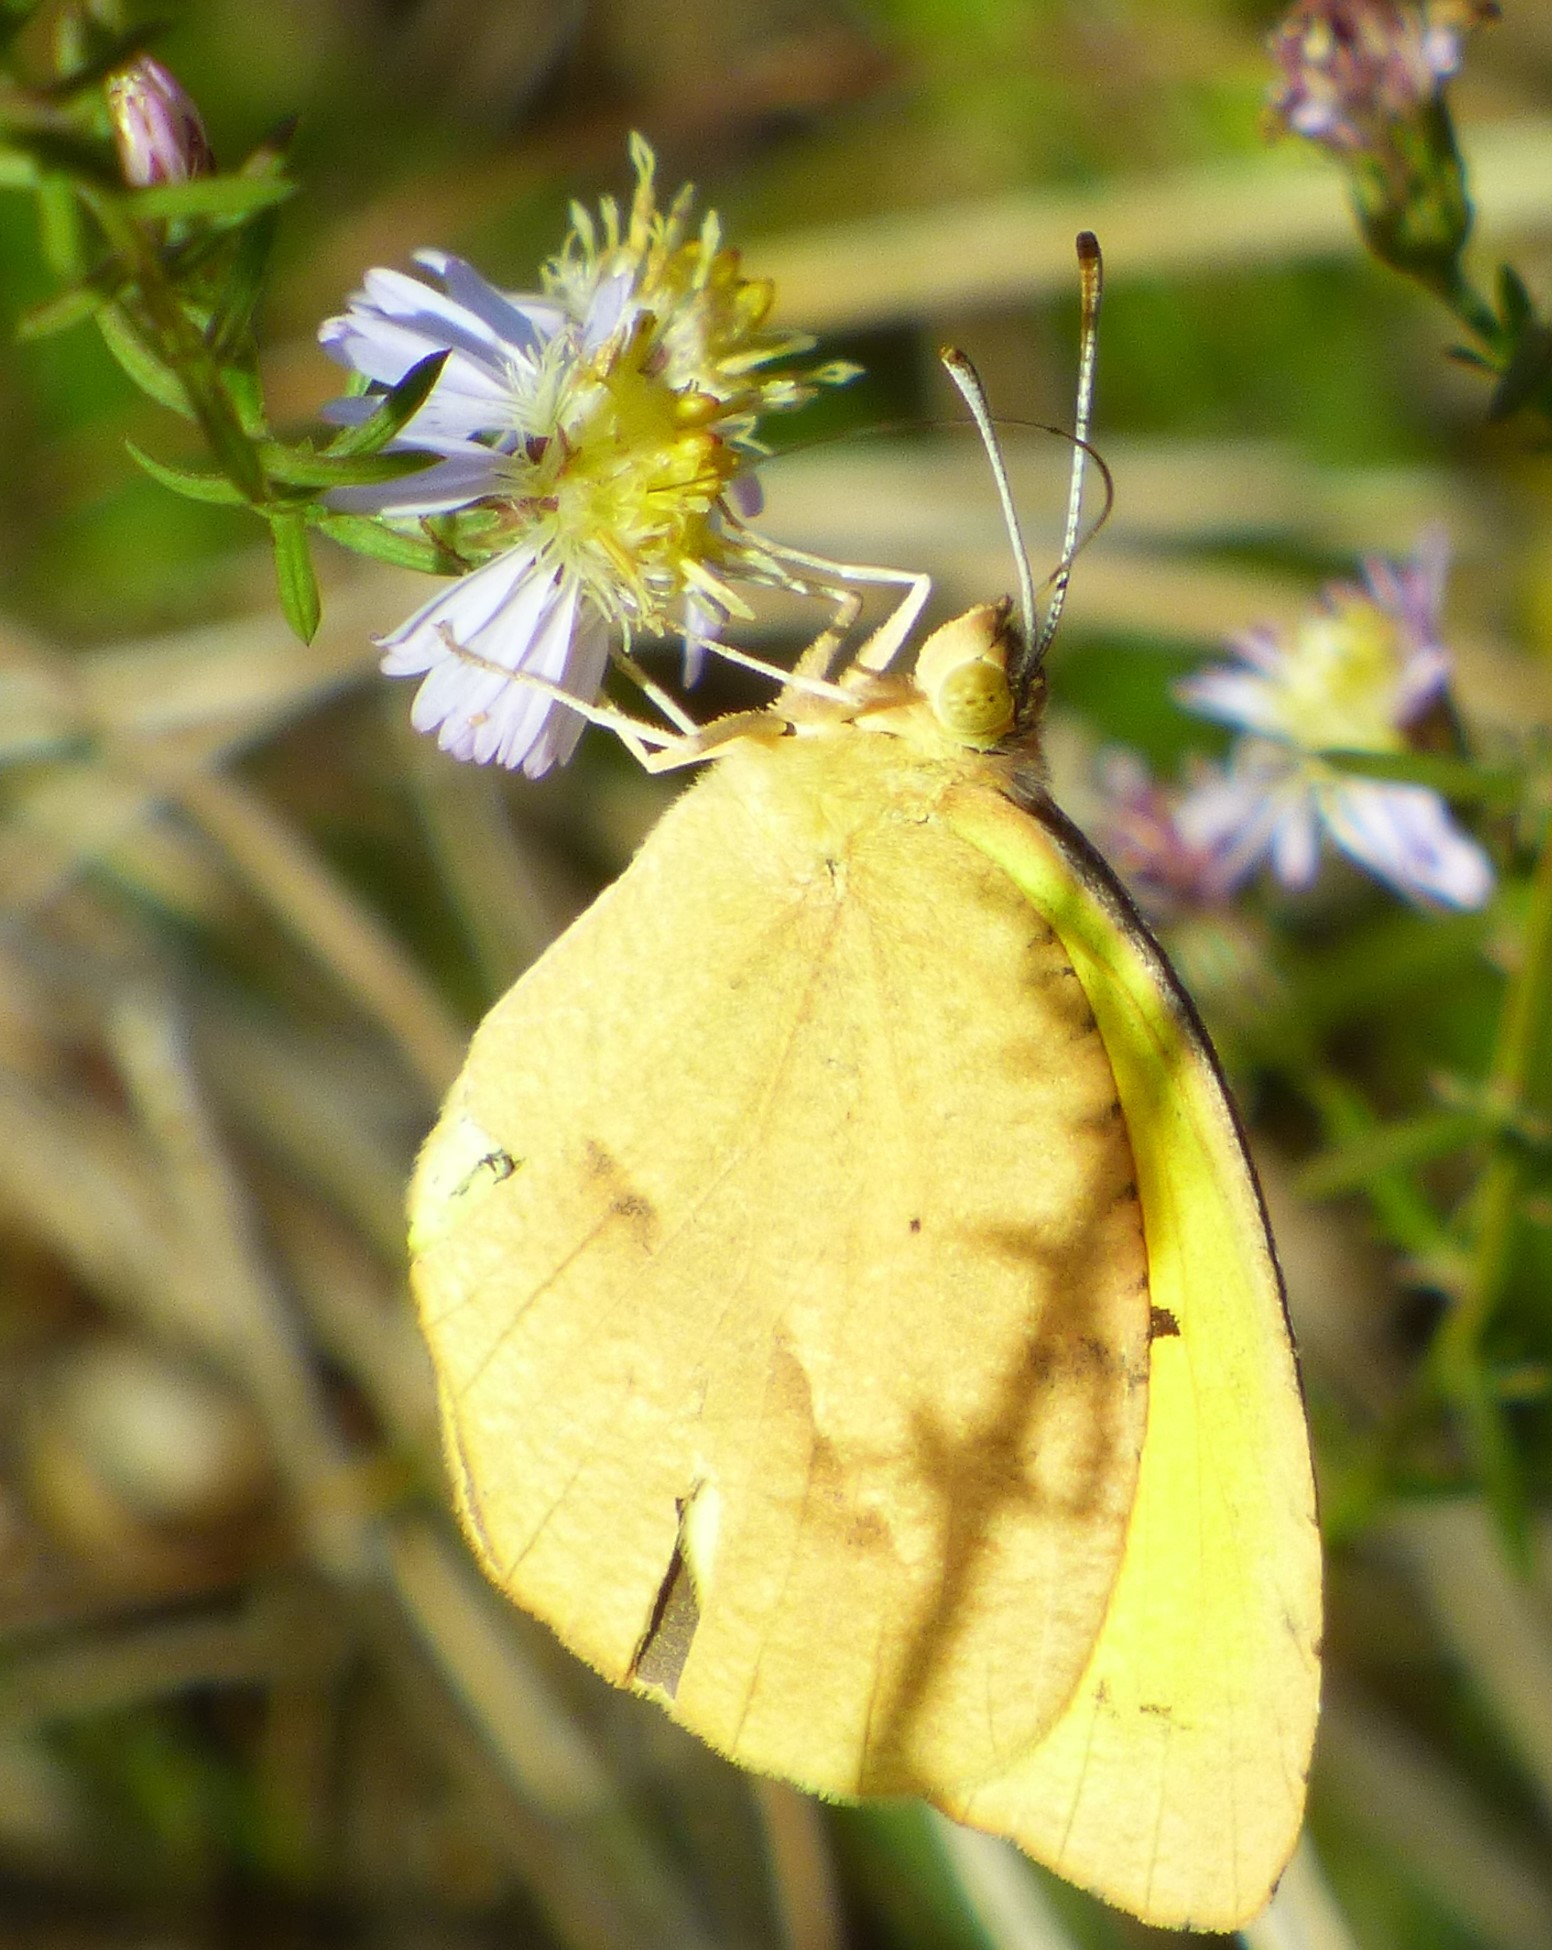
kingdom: Animalia
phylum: Arthropoda
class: Insecta
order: Lepidoptera
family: Pieridae
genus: Abaeis
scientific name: Abaeis nicippe
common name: Sleepy orange
